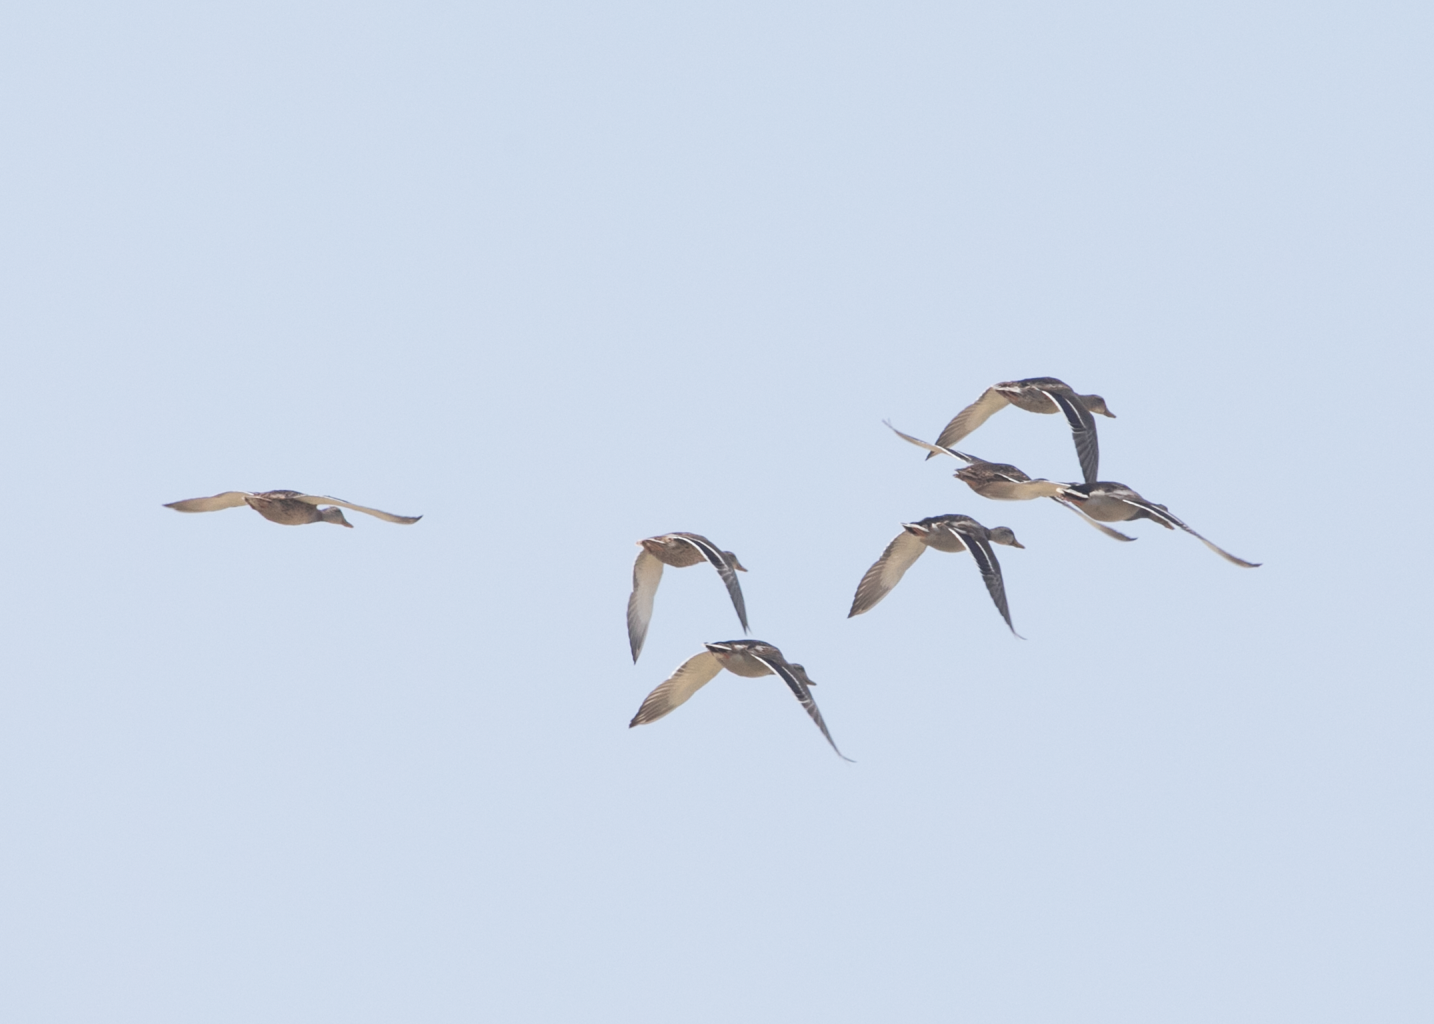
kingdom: Animalia
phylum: Chordata
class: Aves
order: Anseriformes
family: Anatidae
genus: Anas
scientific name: Anas platyrhynchos
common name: Mallard
